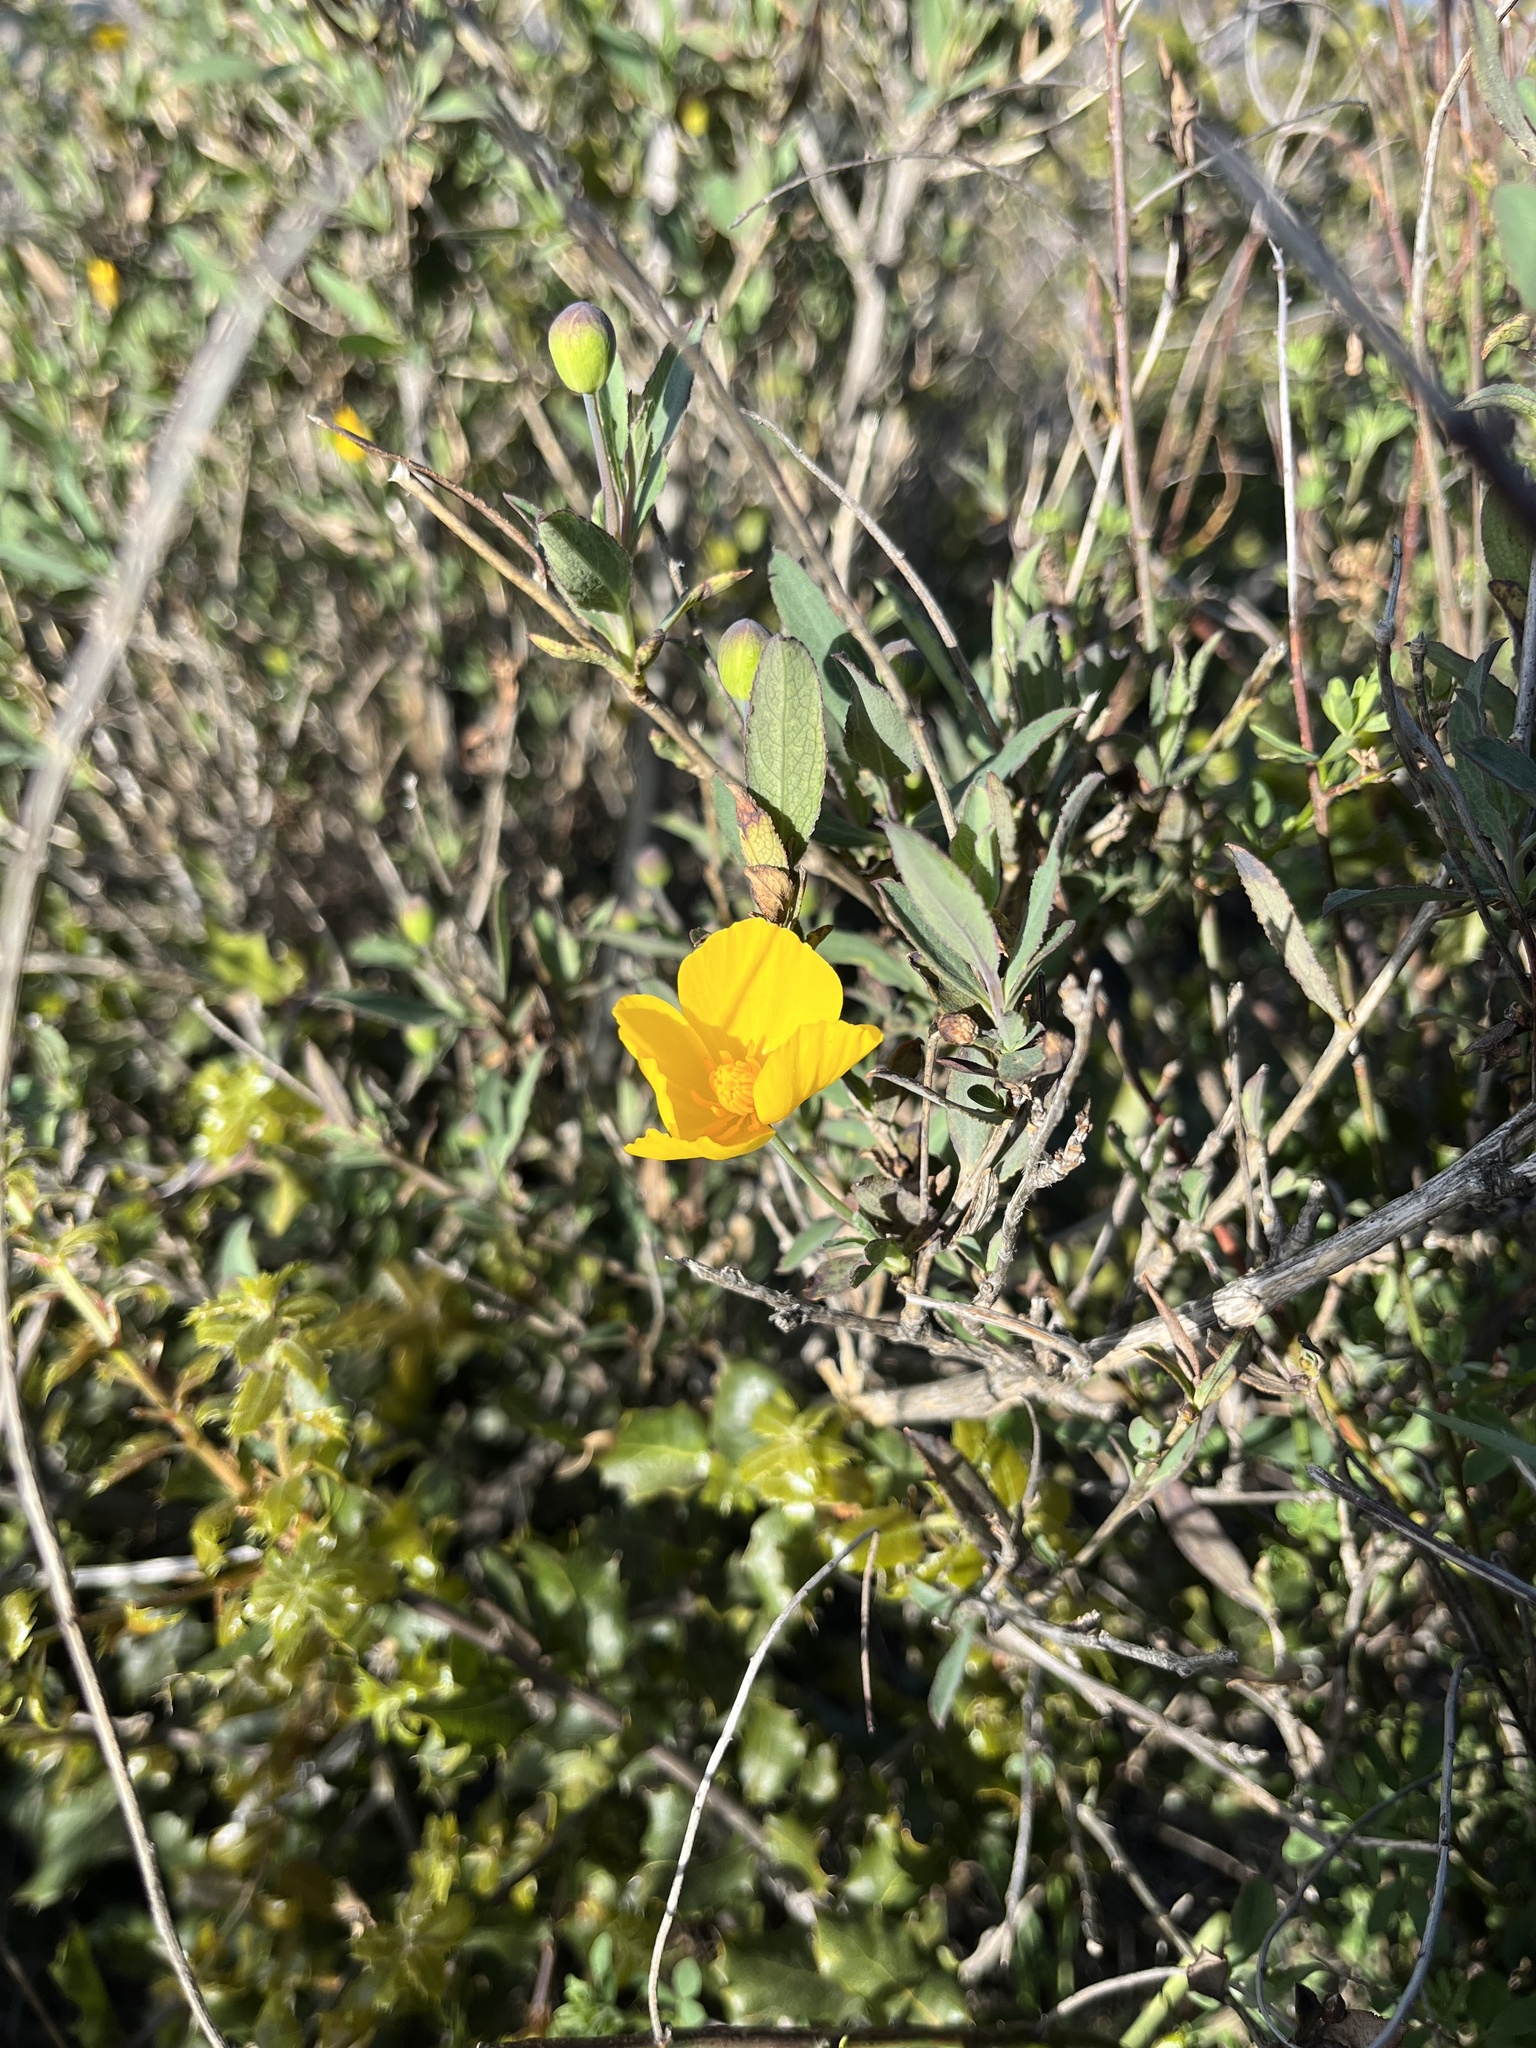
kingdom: Plantae
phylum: Tracheophyta
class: Magnoliopsida
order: Ranunculales
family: Papaveraceae
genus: Dendromecon
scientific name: Dendromecon rigida
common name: Tree poppy
